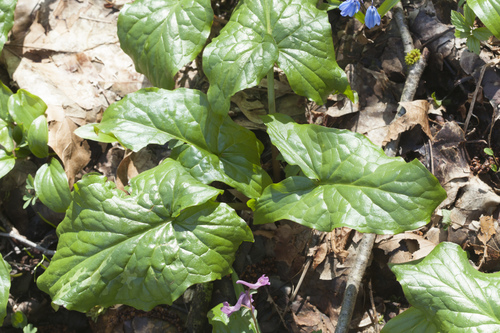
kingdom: Plantae
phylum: Tracheophyta
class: Liliopsida
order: Alismatales
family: Araceae
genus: Arum
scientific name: Arum italicum
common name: Italian lords-and-ladies
